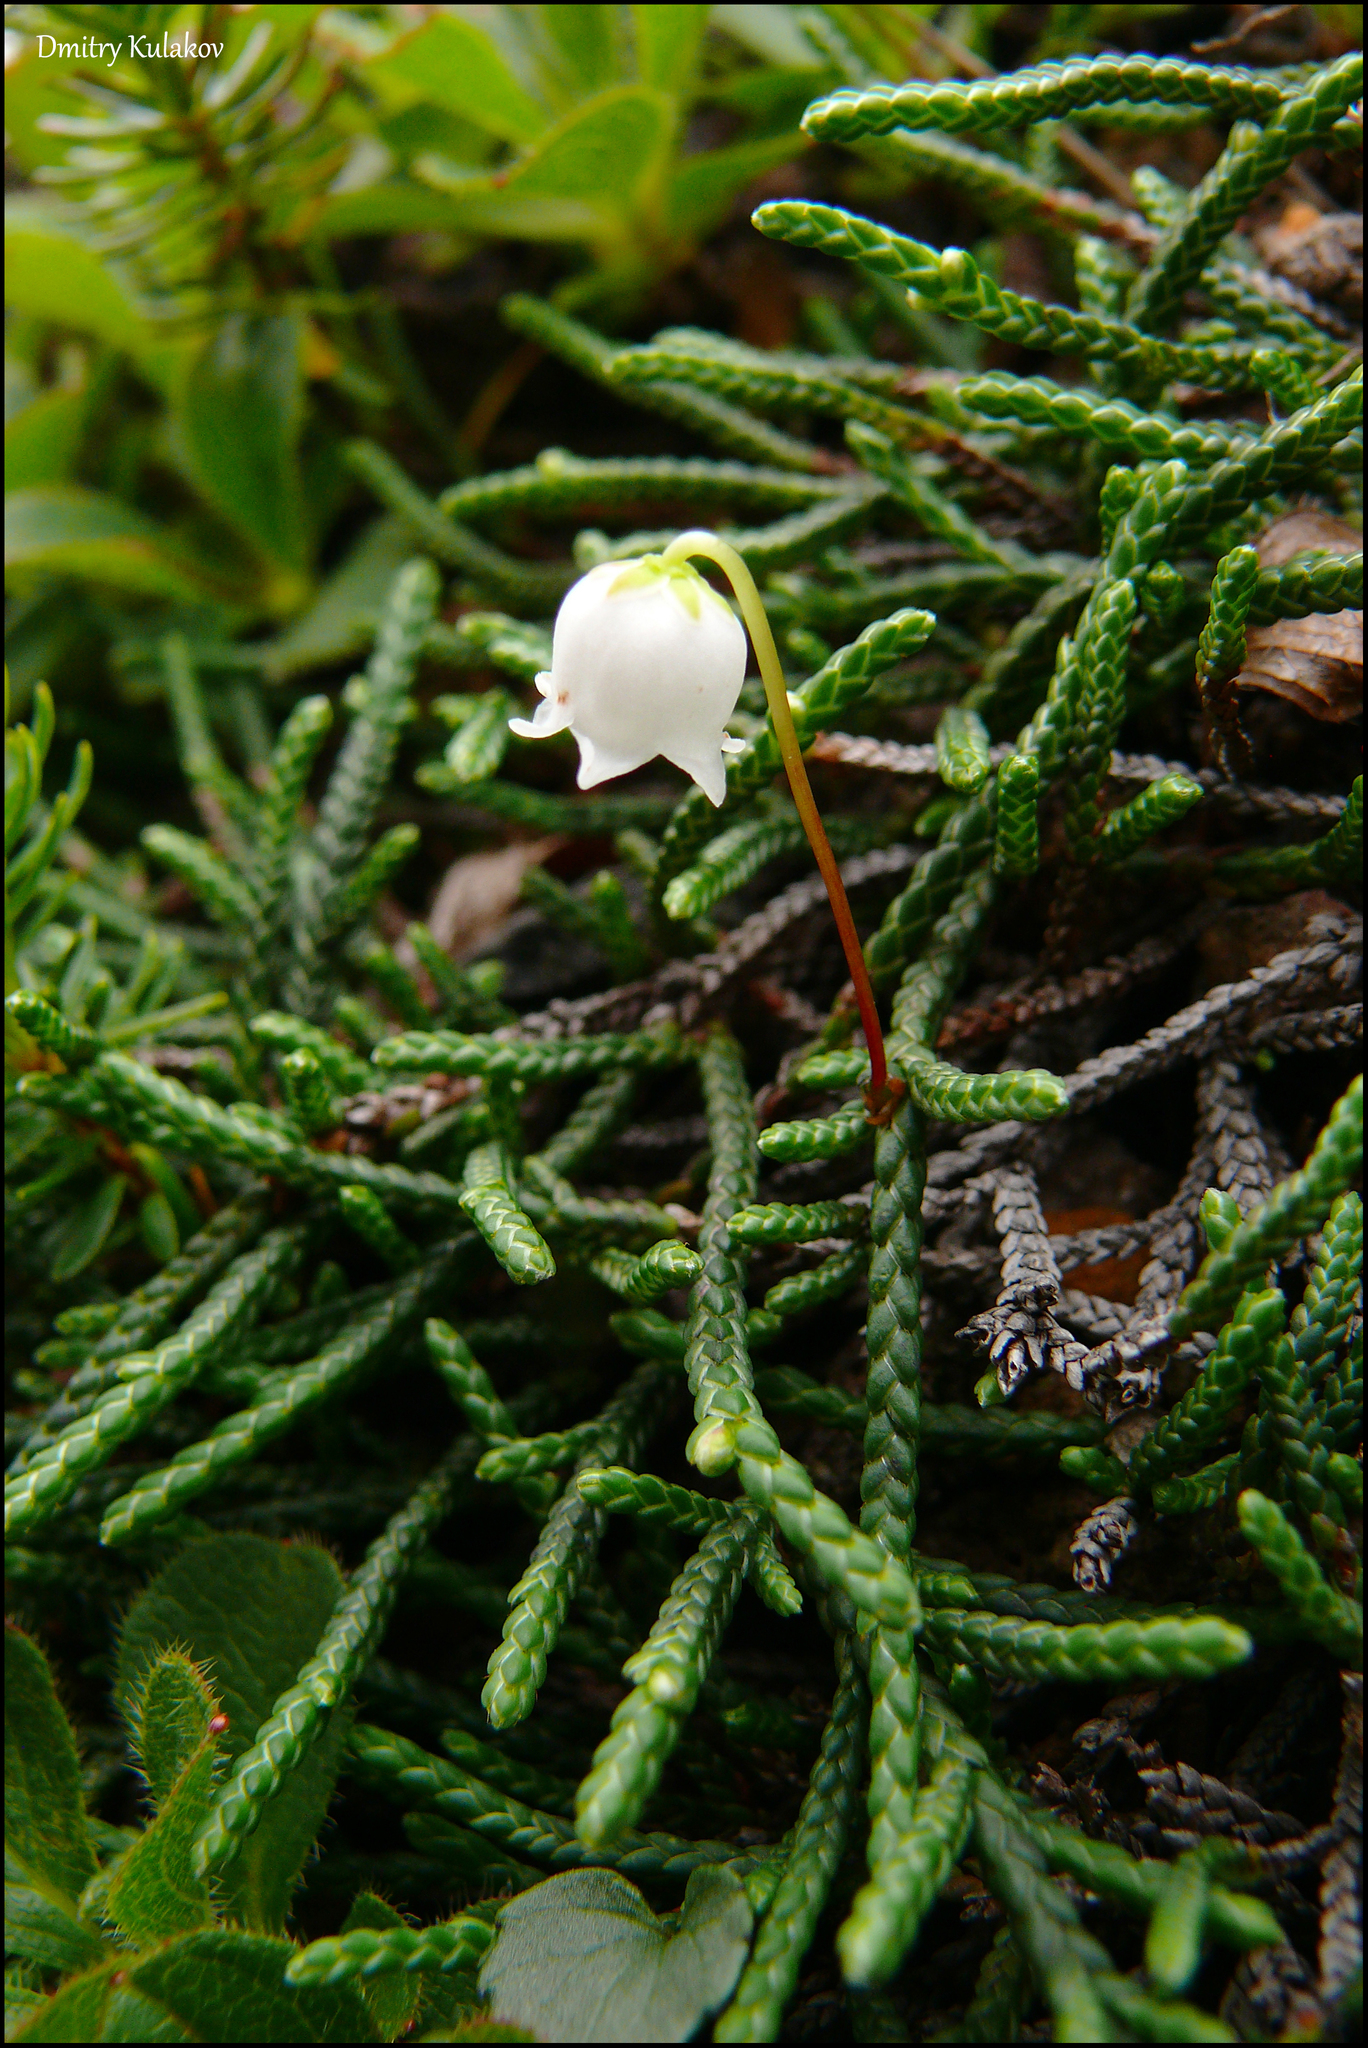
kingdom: Plantae
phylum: Tracheophyta
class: Magnoliopsida
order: Ericales
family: Ericaceae
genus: Cassiope
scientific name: Cassiope lycopodioides
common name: Clubmoss mountain heather
